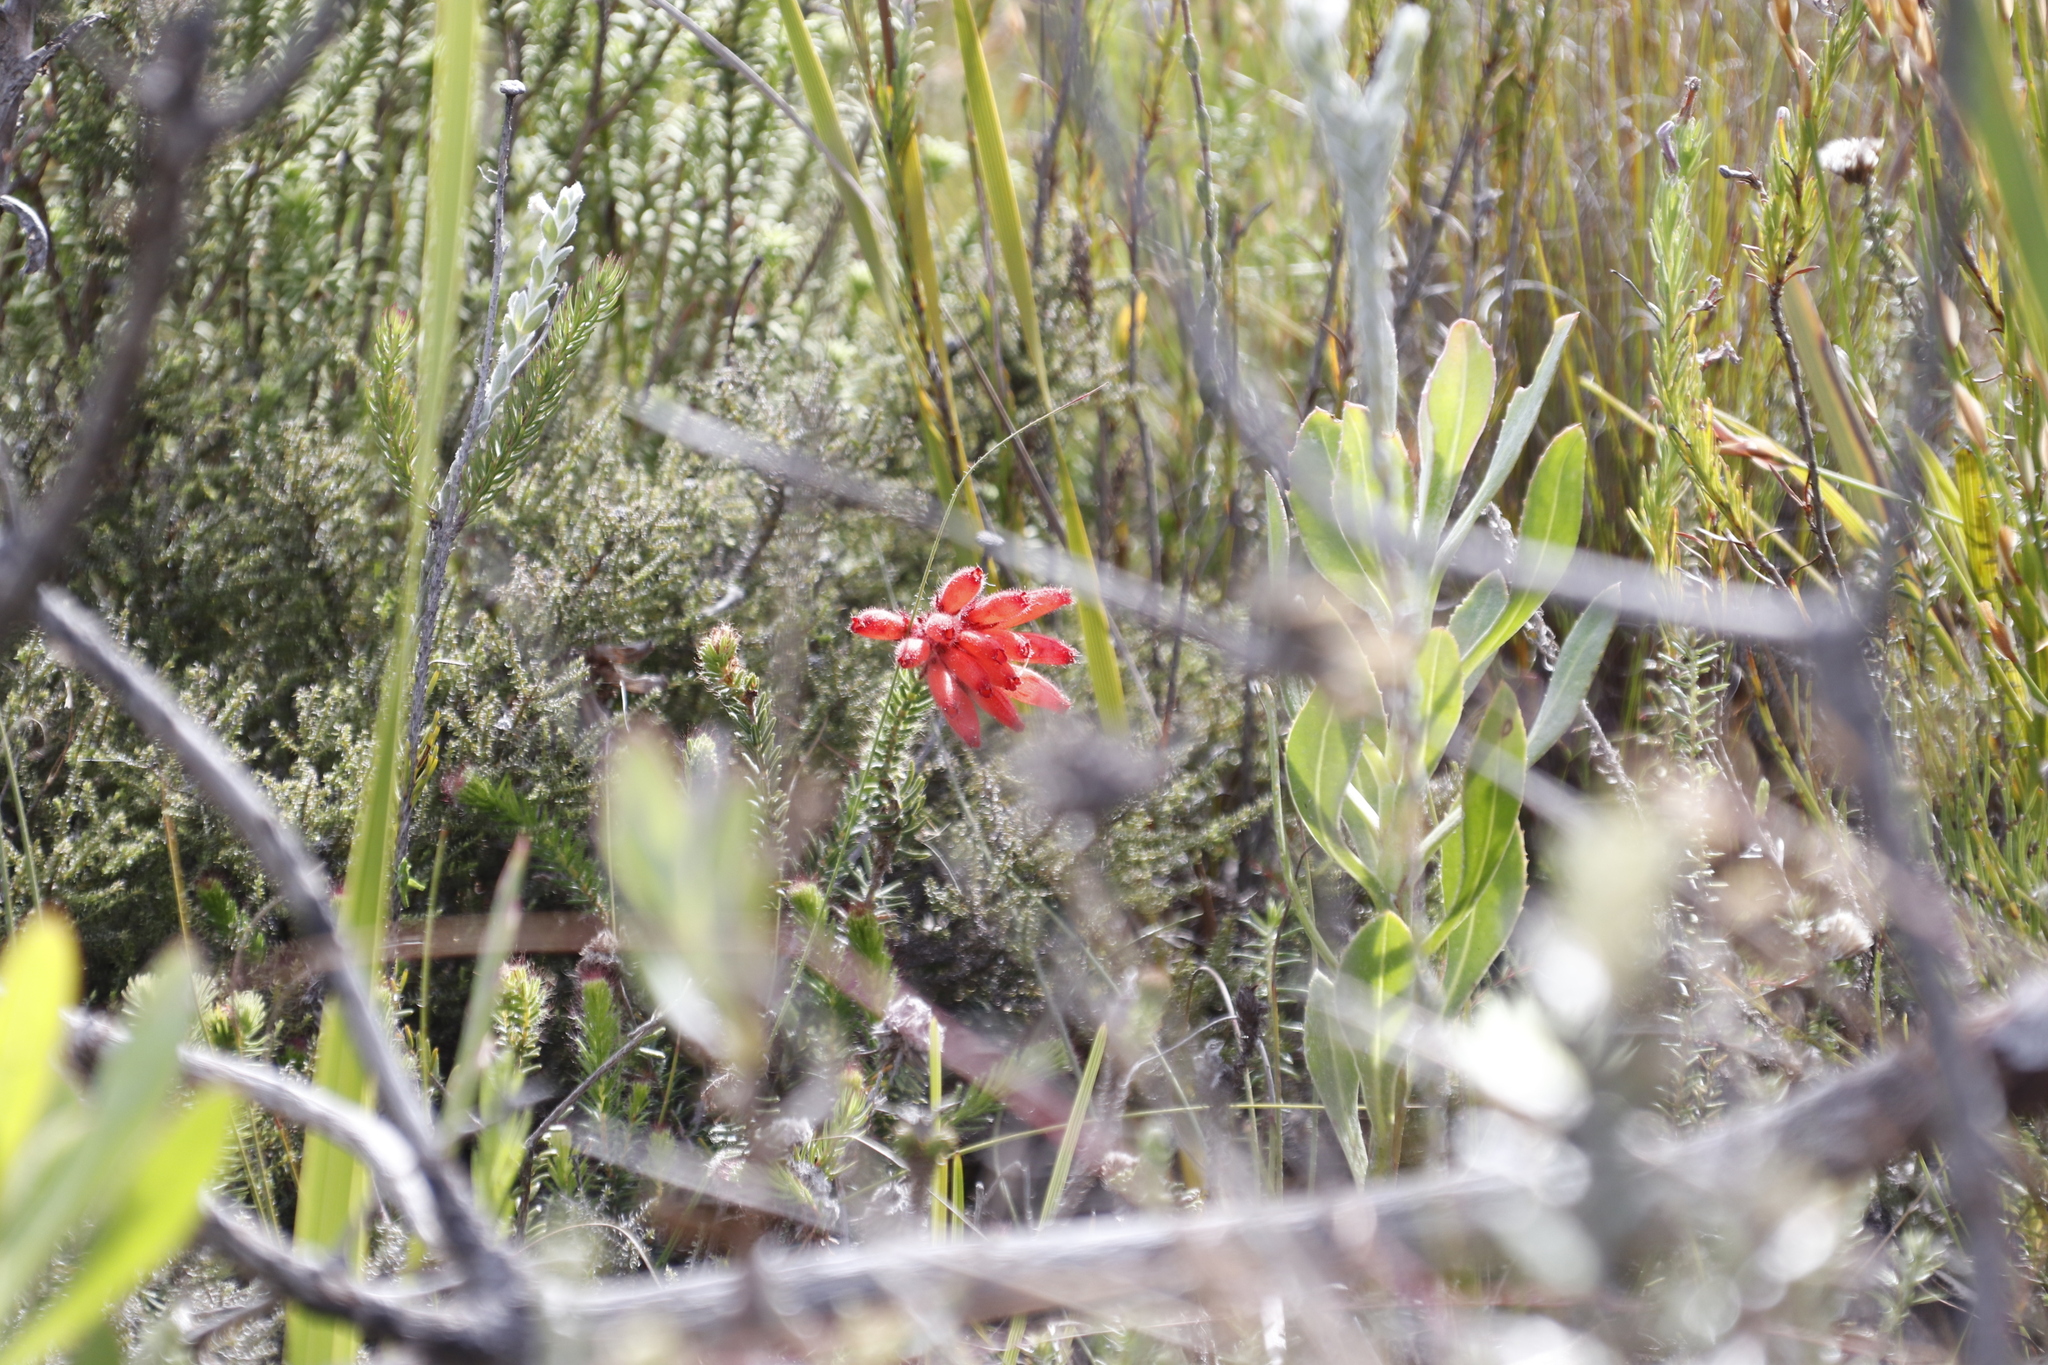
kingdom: Plantae
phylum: Tracheophyta
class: Magnoliopsida
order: Ericales
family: Ericaceae
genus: Erica
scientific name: Erica cerinthoides
